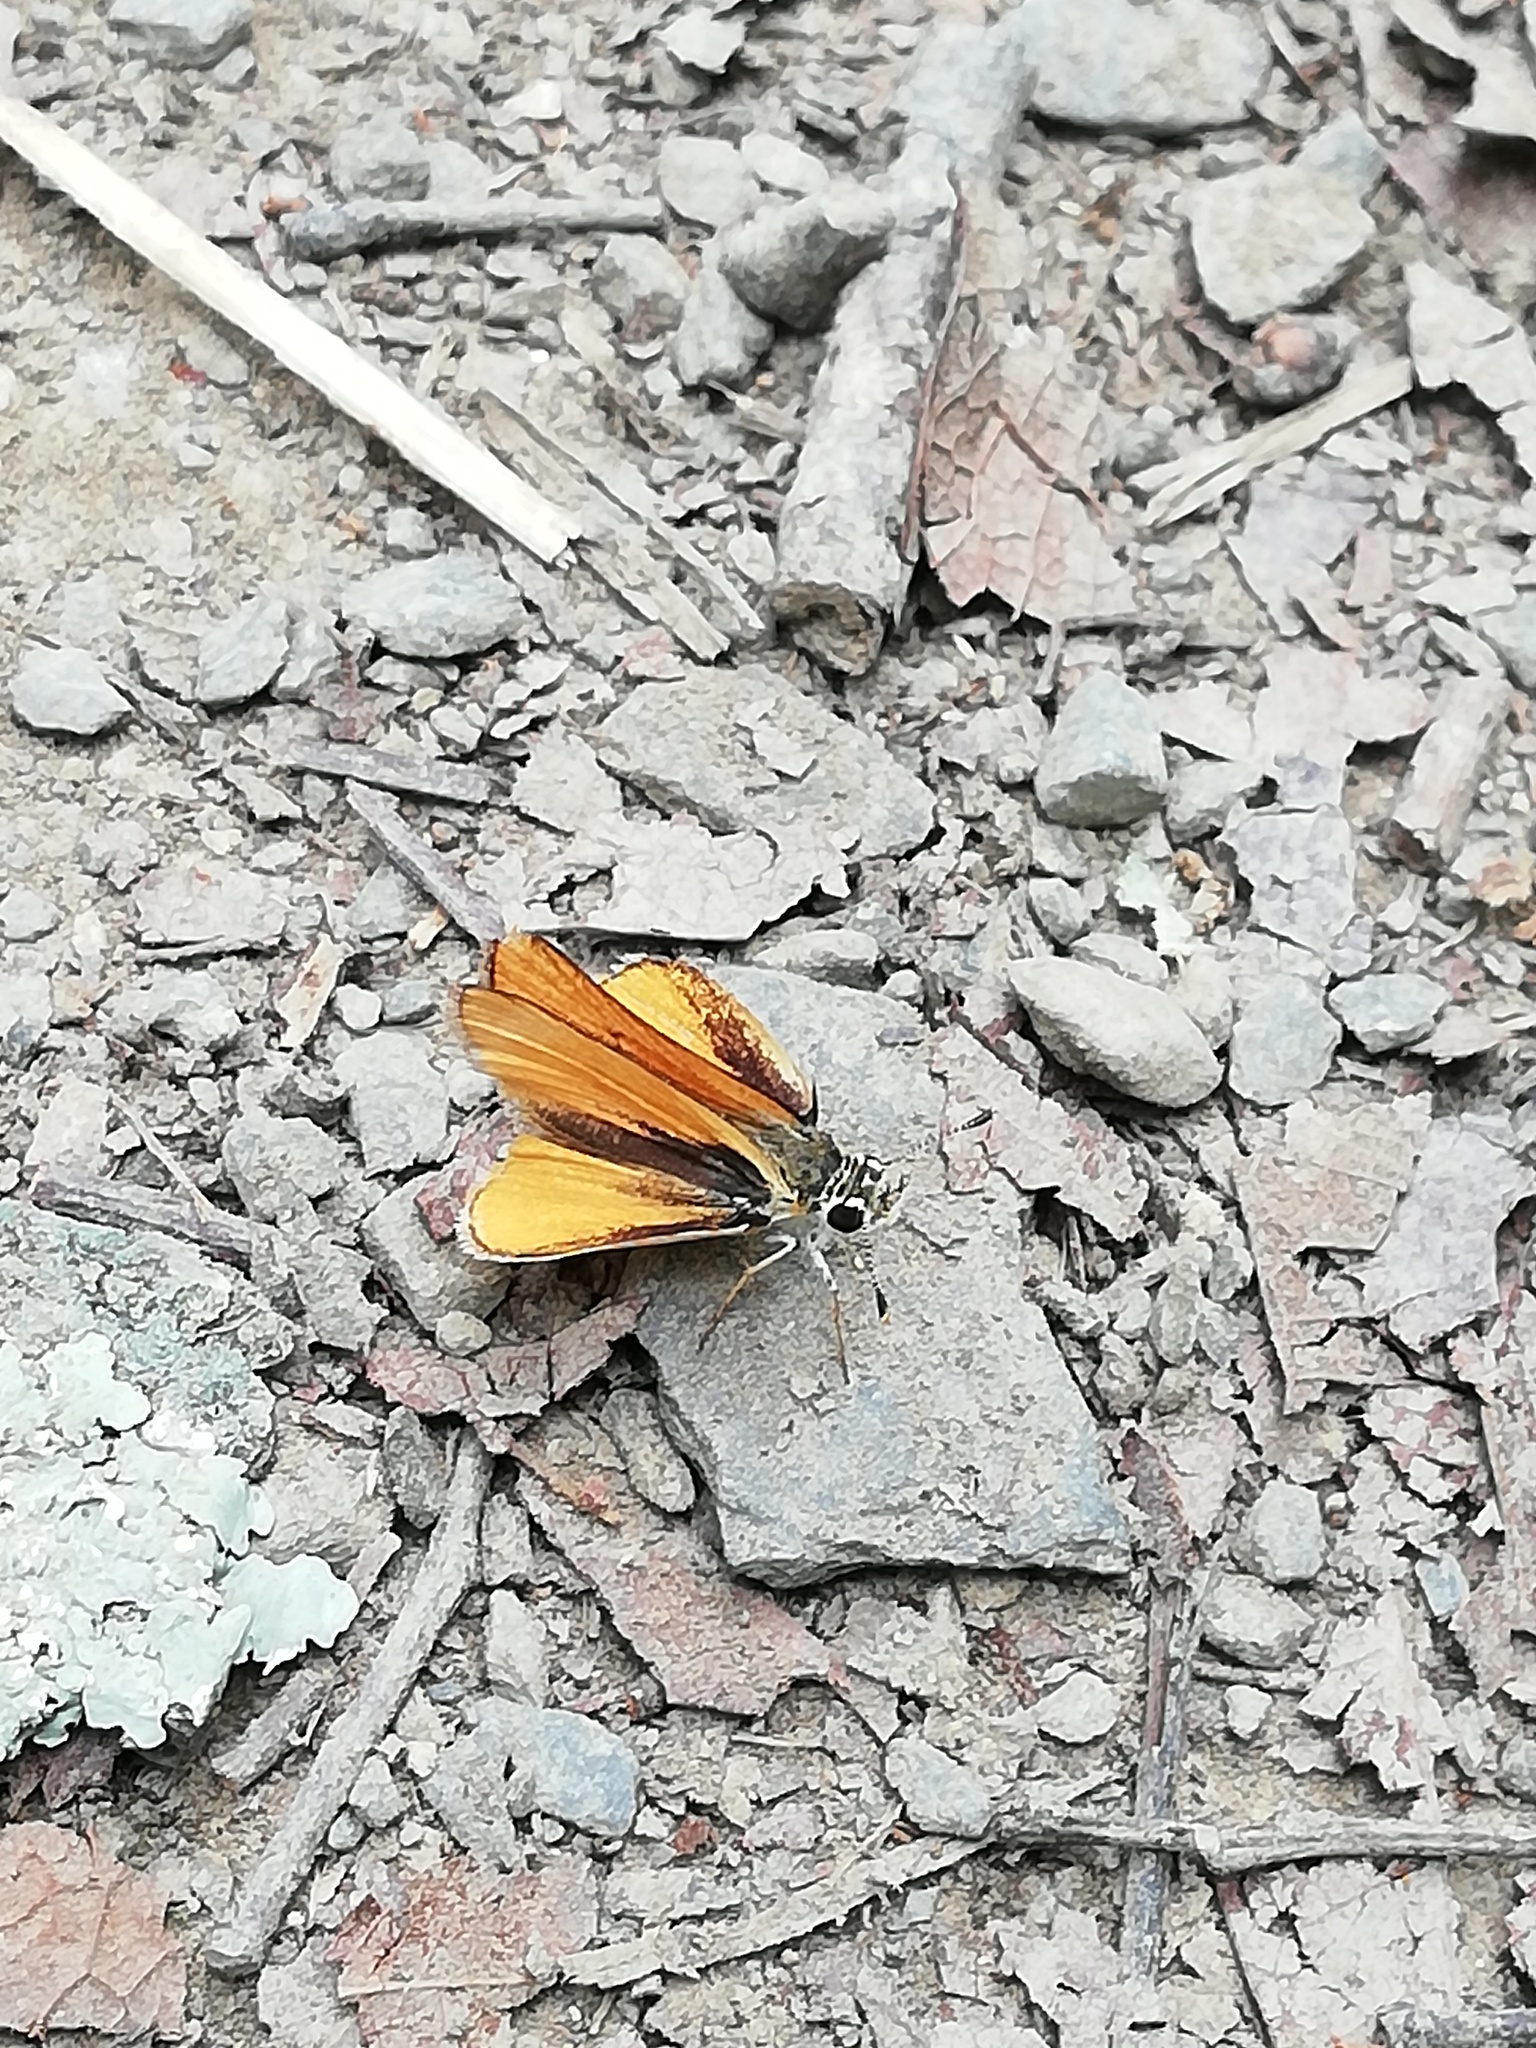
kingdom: Animalia
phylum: Arthropoda
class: Insecta
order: Lepidoptera
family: Hesperiidae
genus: Copaeodes
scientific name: Copaeodes minima
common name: Southern skipperling
